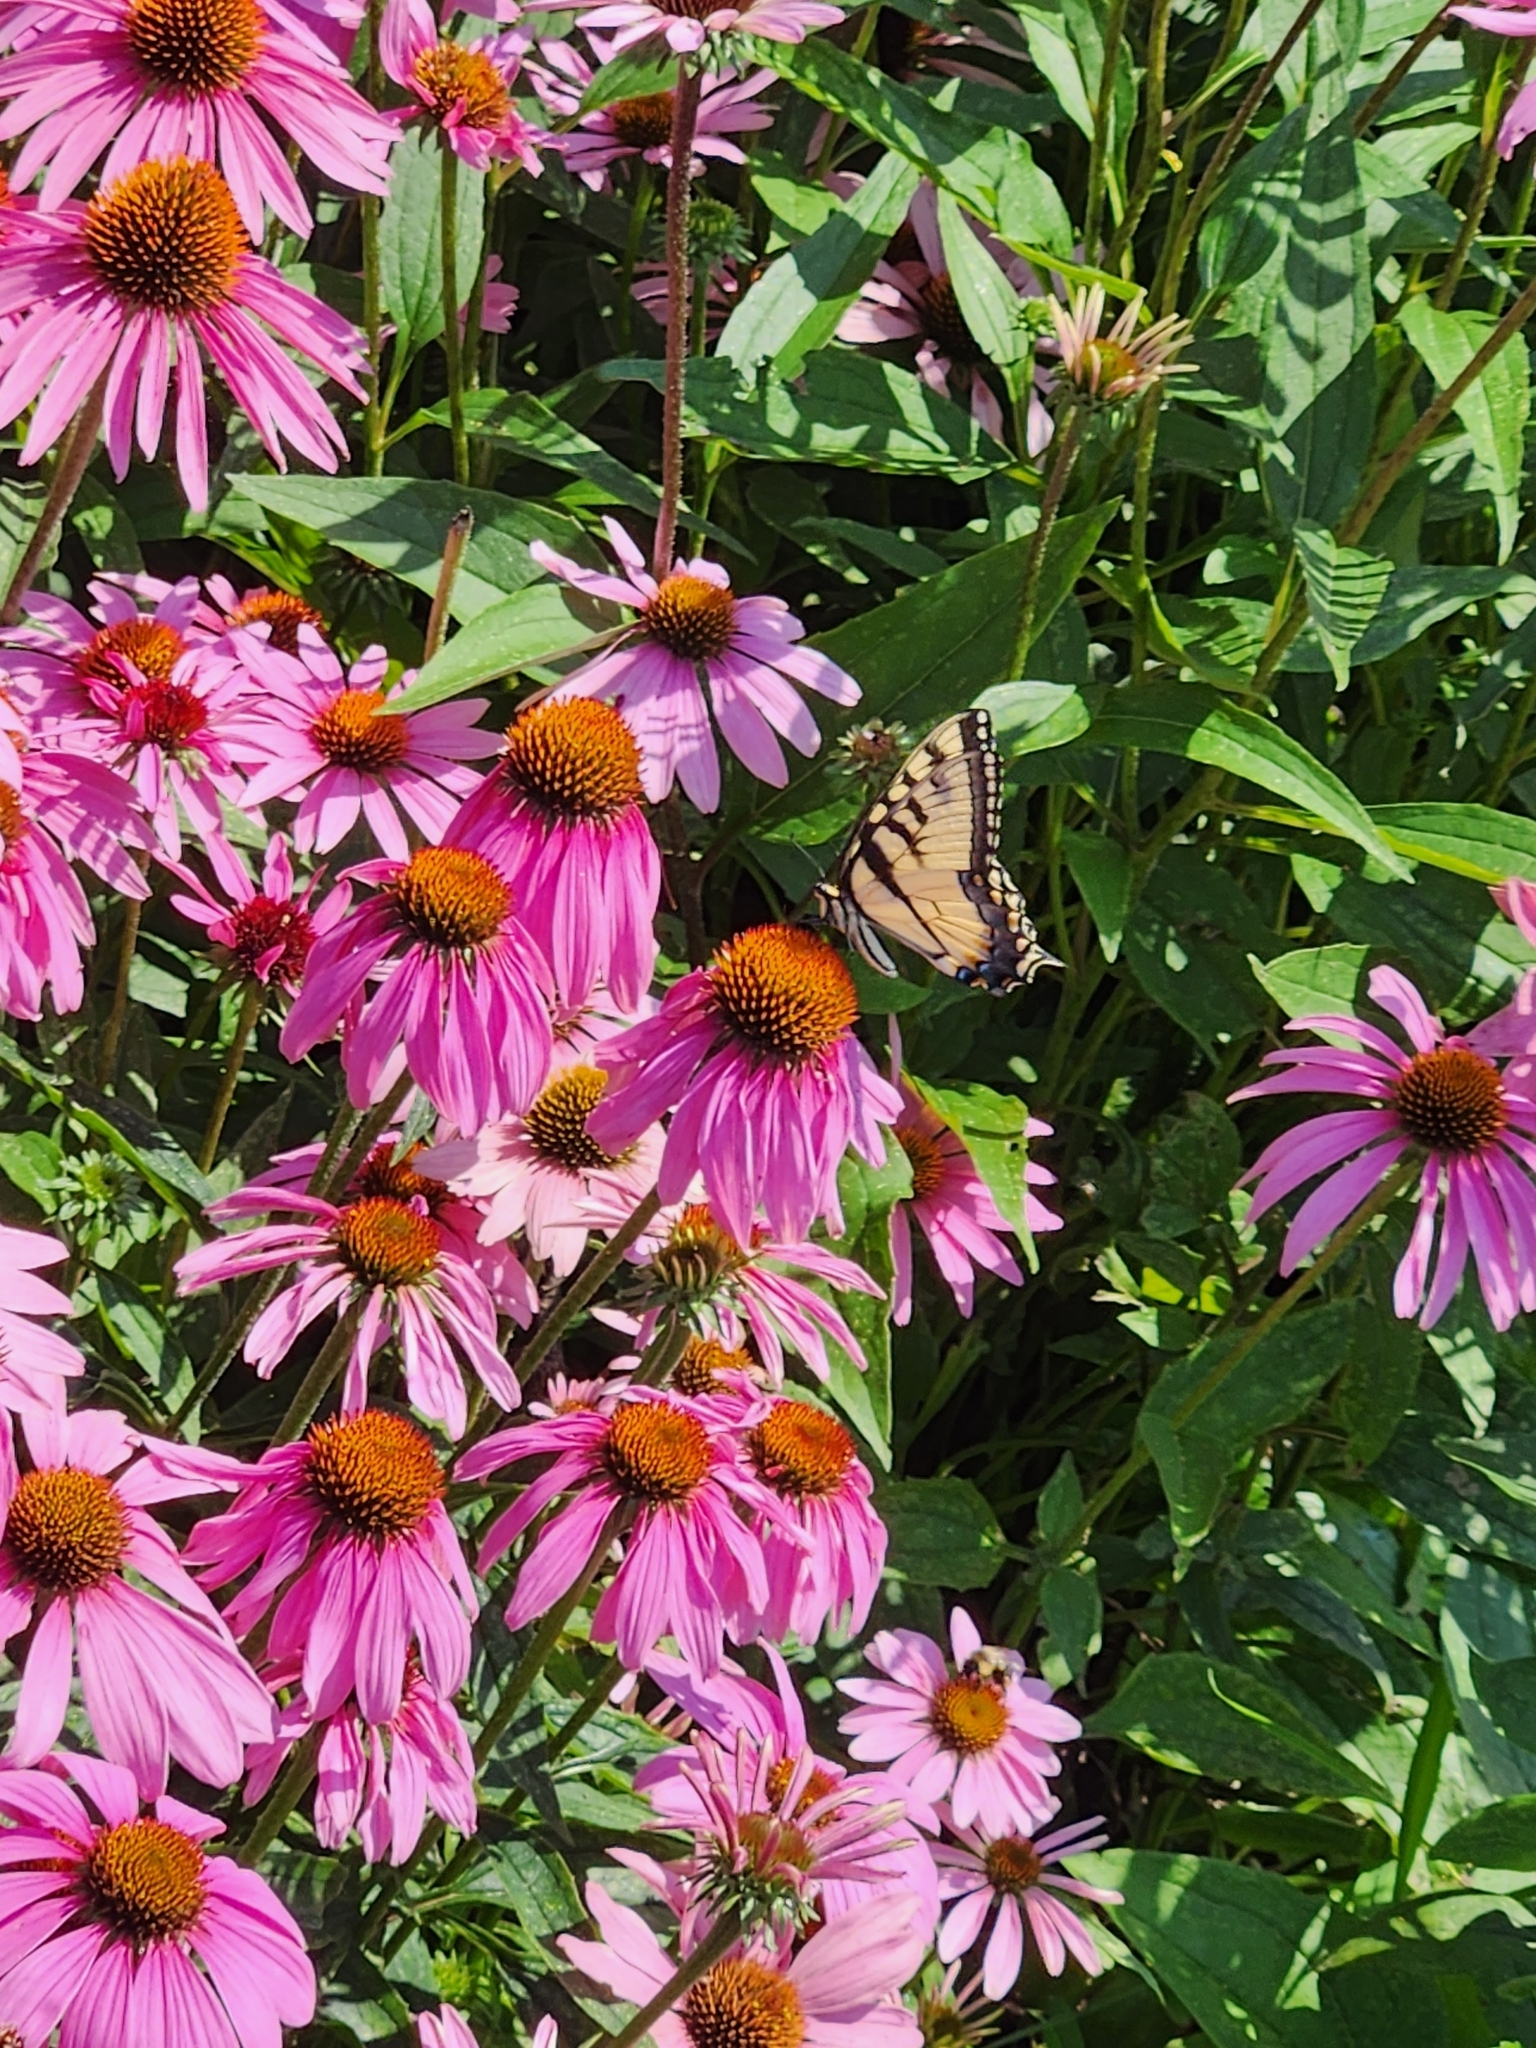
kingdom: Animalia
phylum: Arthropoda
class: Insecta
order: Lepidoptera
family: Papilionidae
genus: Papilio
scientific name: Papilio glaucus
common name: Tiger swallowtail
